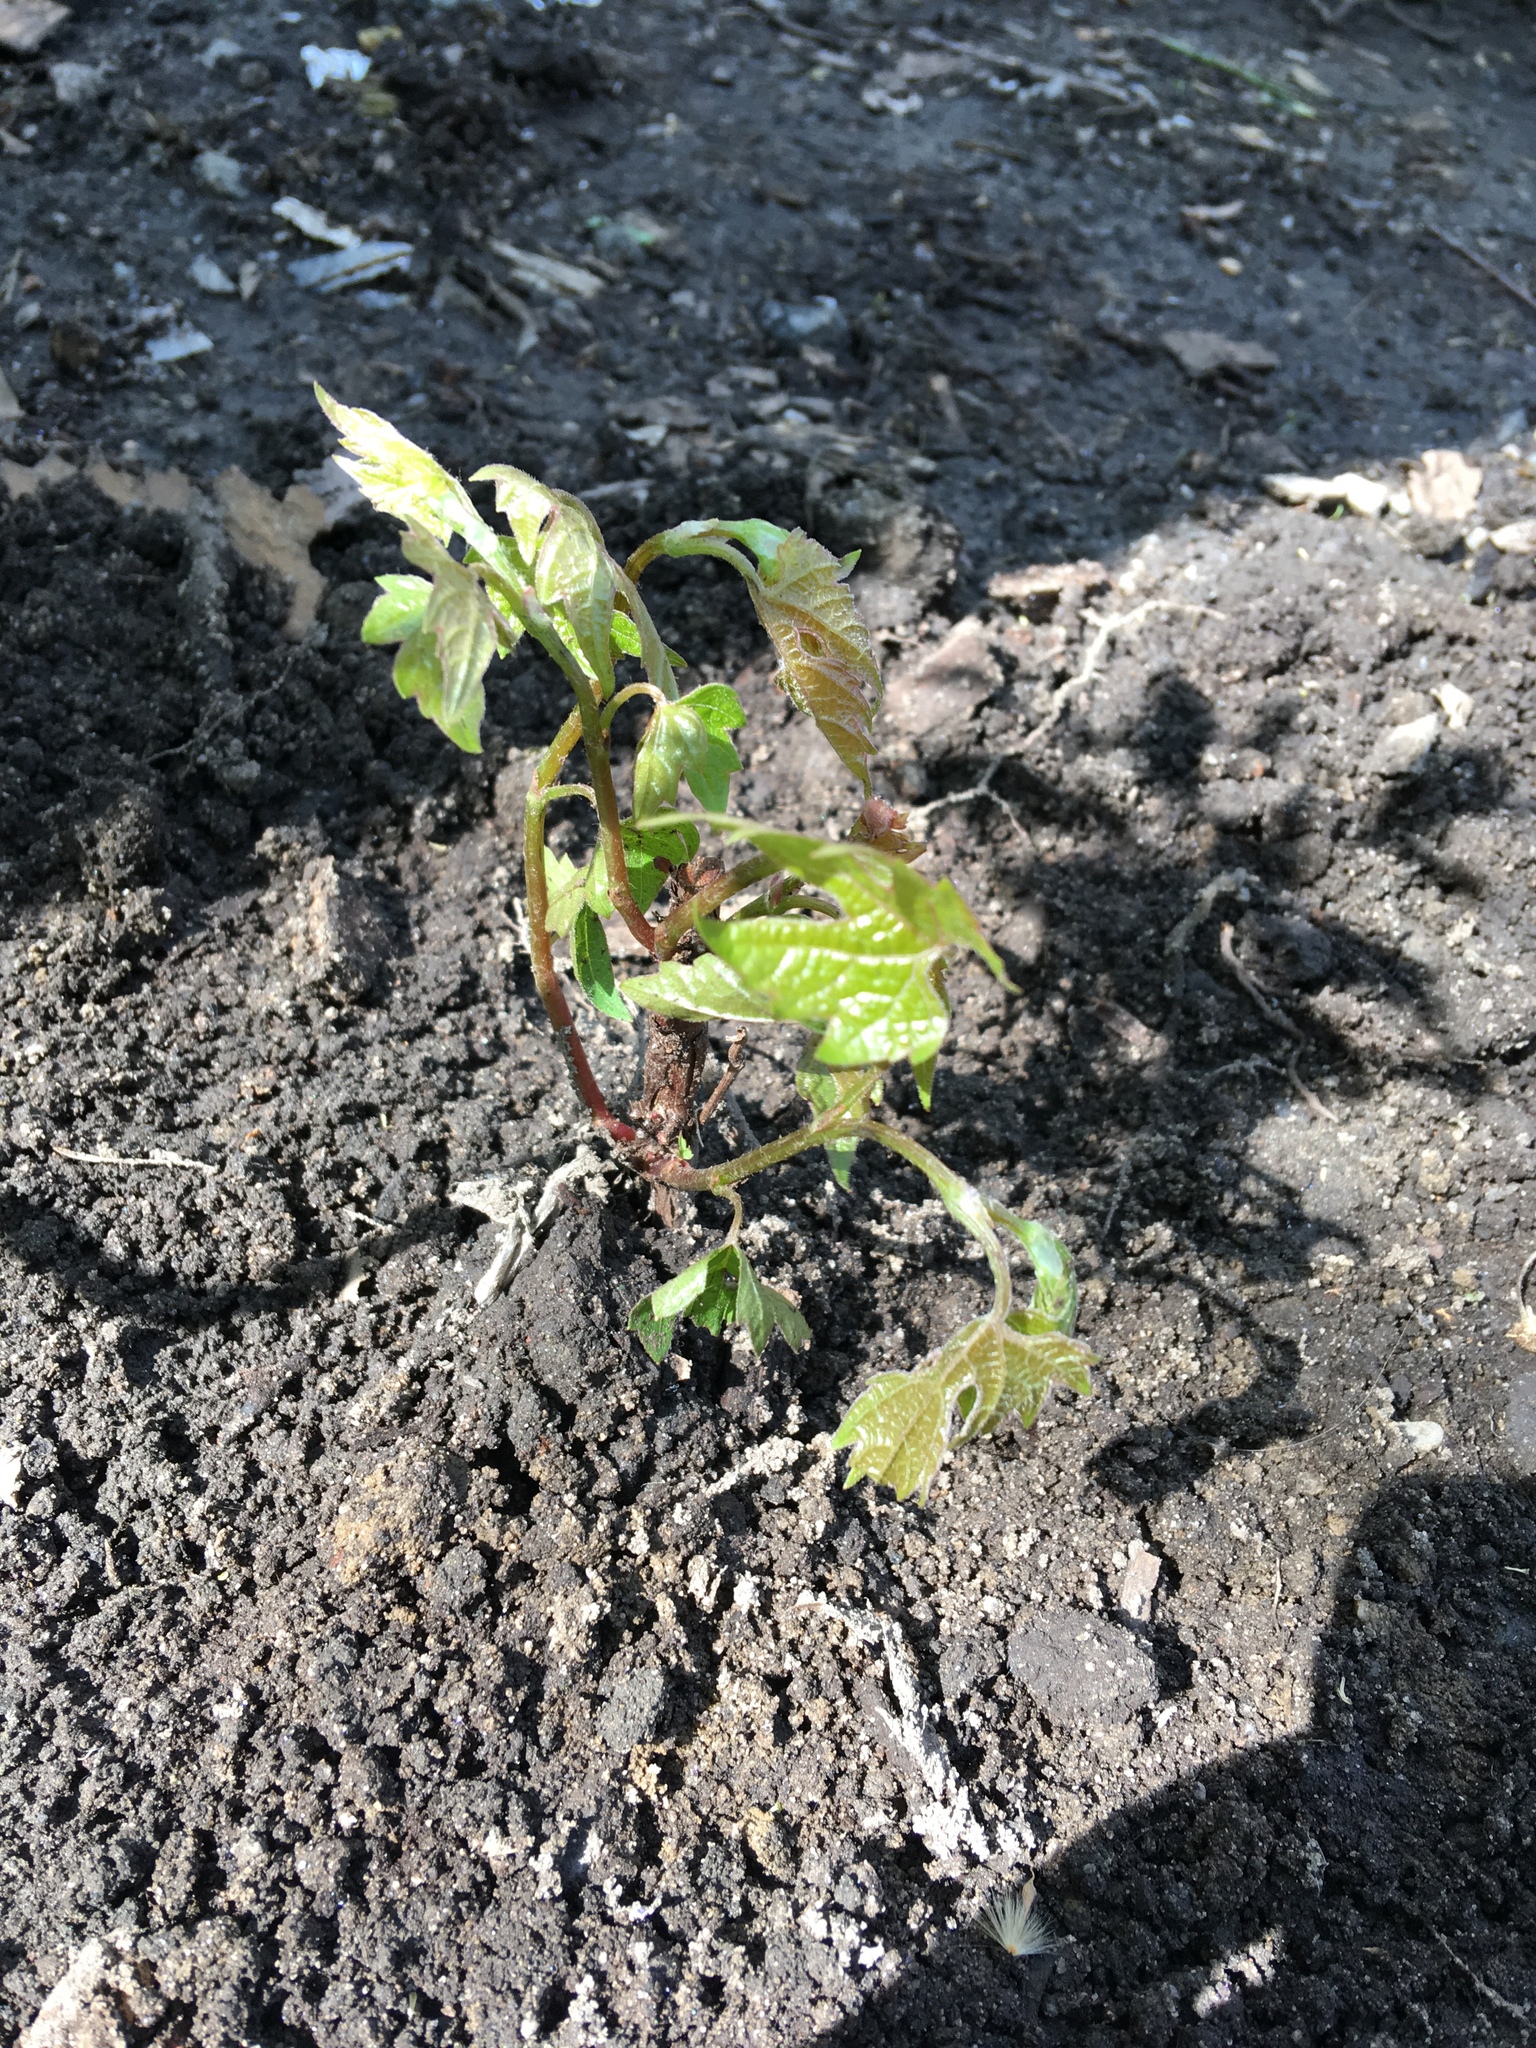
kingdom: Plantae
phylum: Tracheophyta
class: Magnoliopsida
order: Vitales
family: Vitaceae
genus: Vitis
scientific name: Vitis riparia
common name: Frost grape
